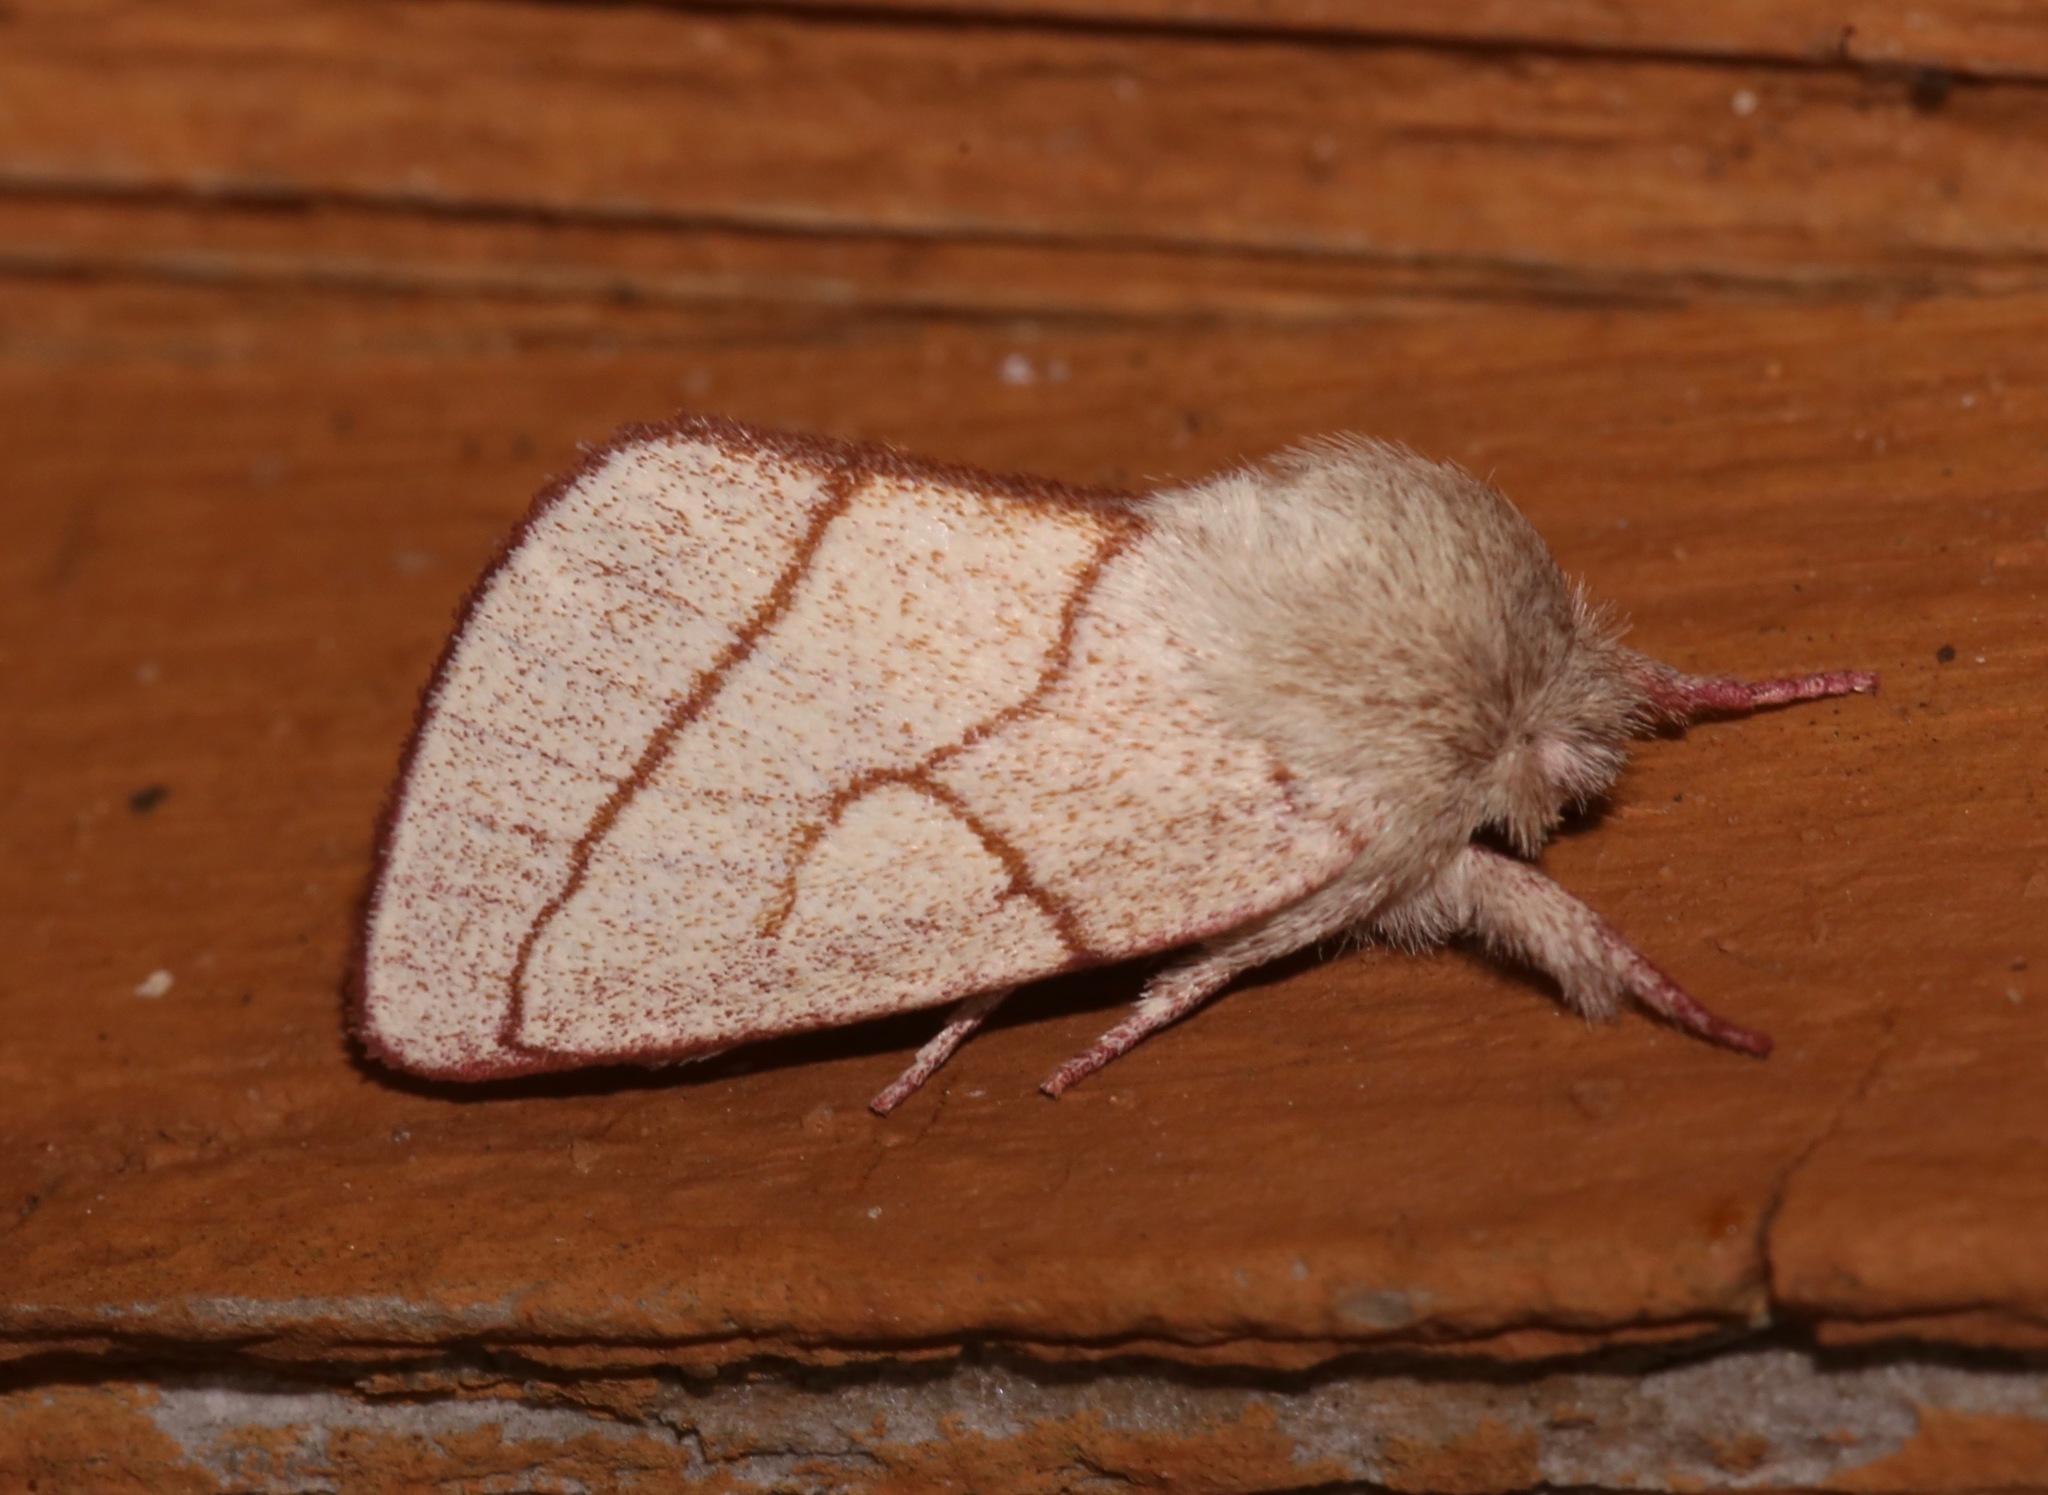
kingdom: Animalia
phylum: Arthropoda
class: Insecta
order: Lepidoptera
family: Notodontidae
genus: Hyparpax
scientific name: Hyparpax perophoroides
